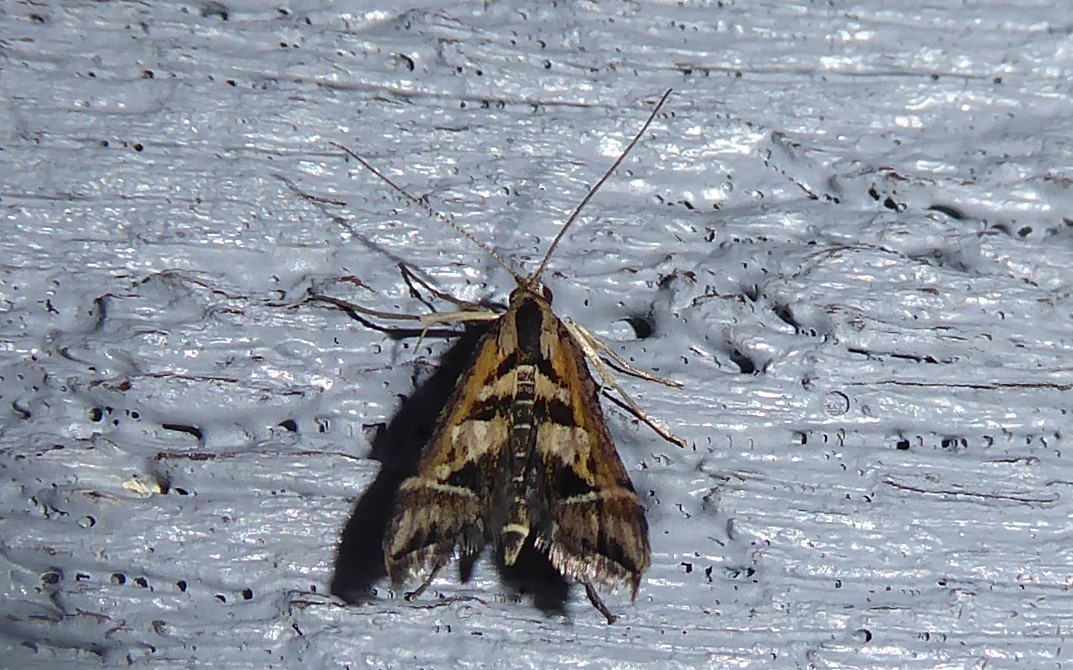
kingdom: Animalia
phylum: Arthropoda
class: Insecta
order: Lepidoptera
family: Crambidae
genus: Diasemia
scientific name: Diasemia grammalis
